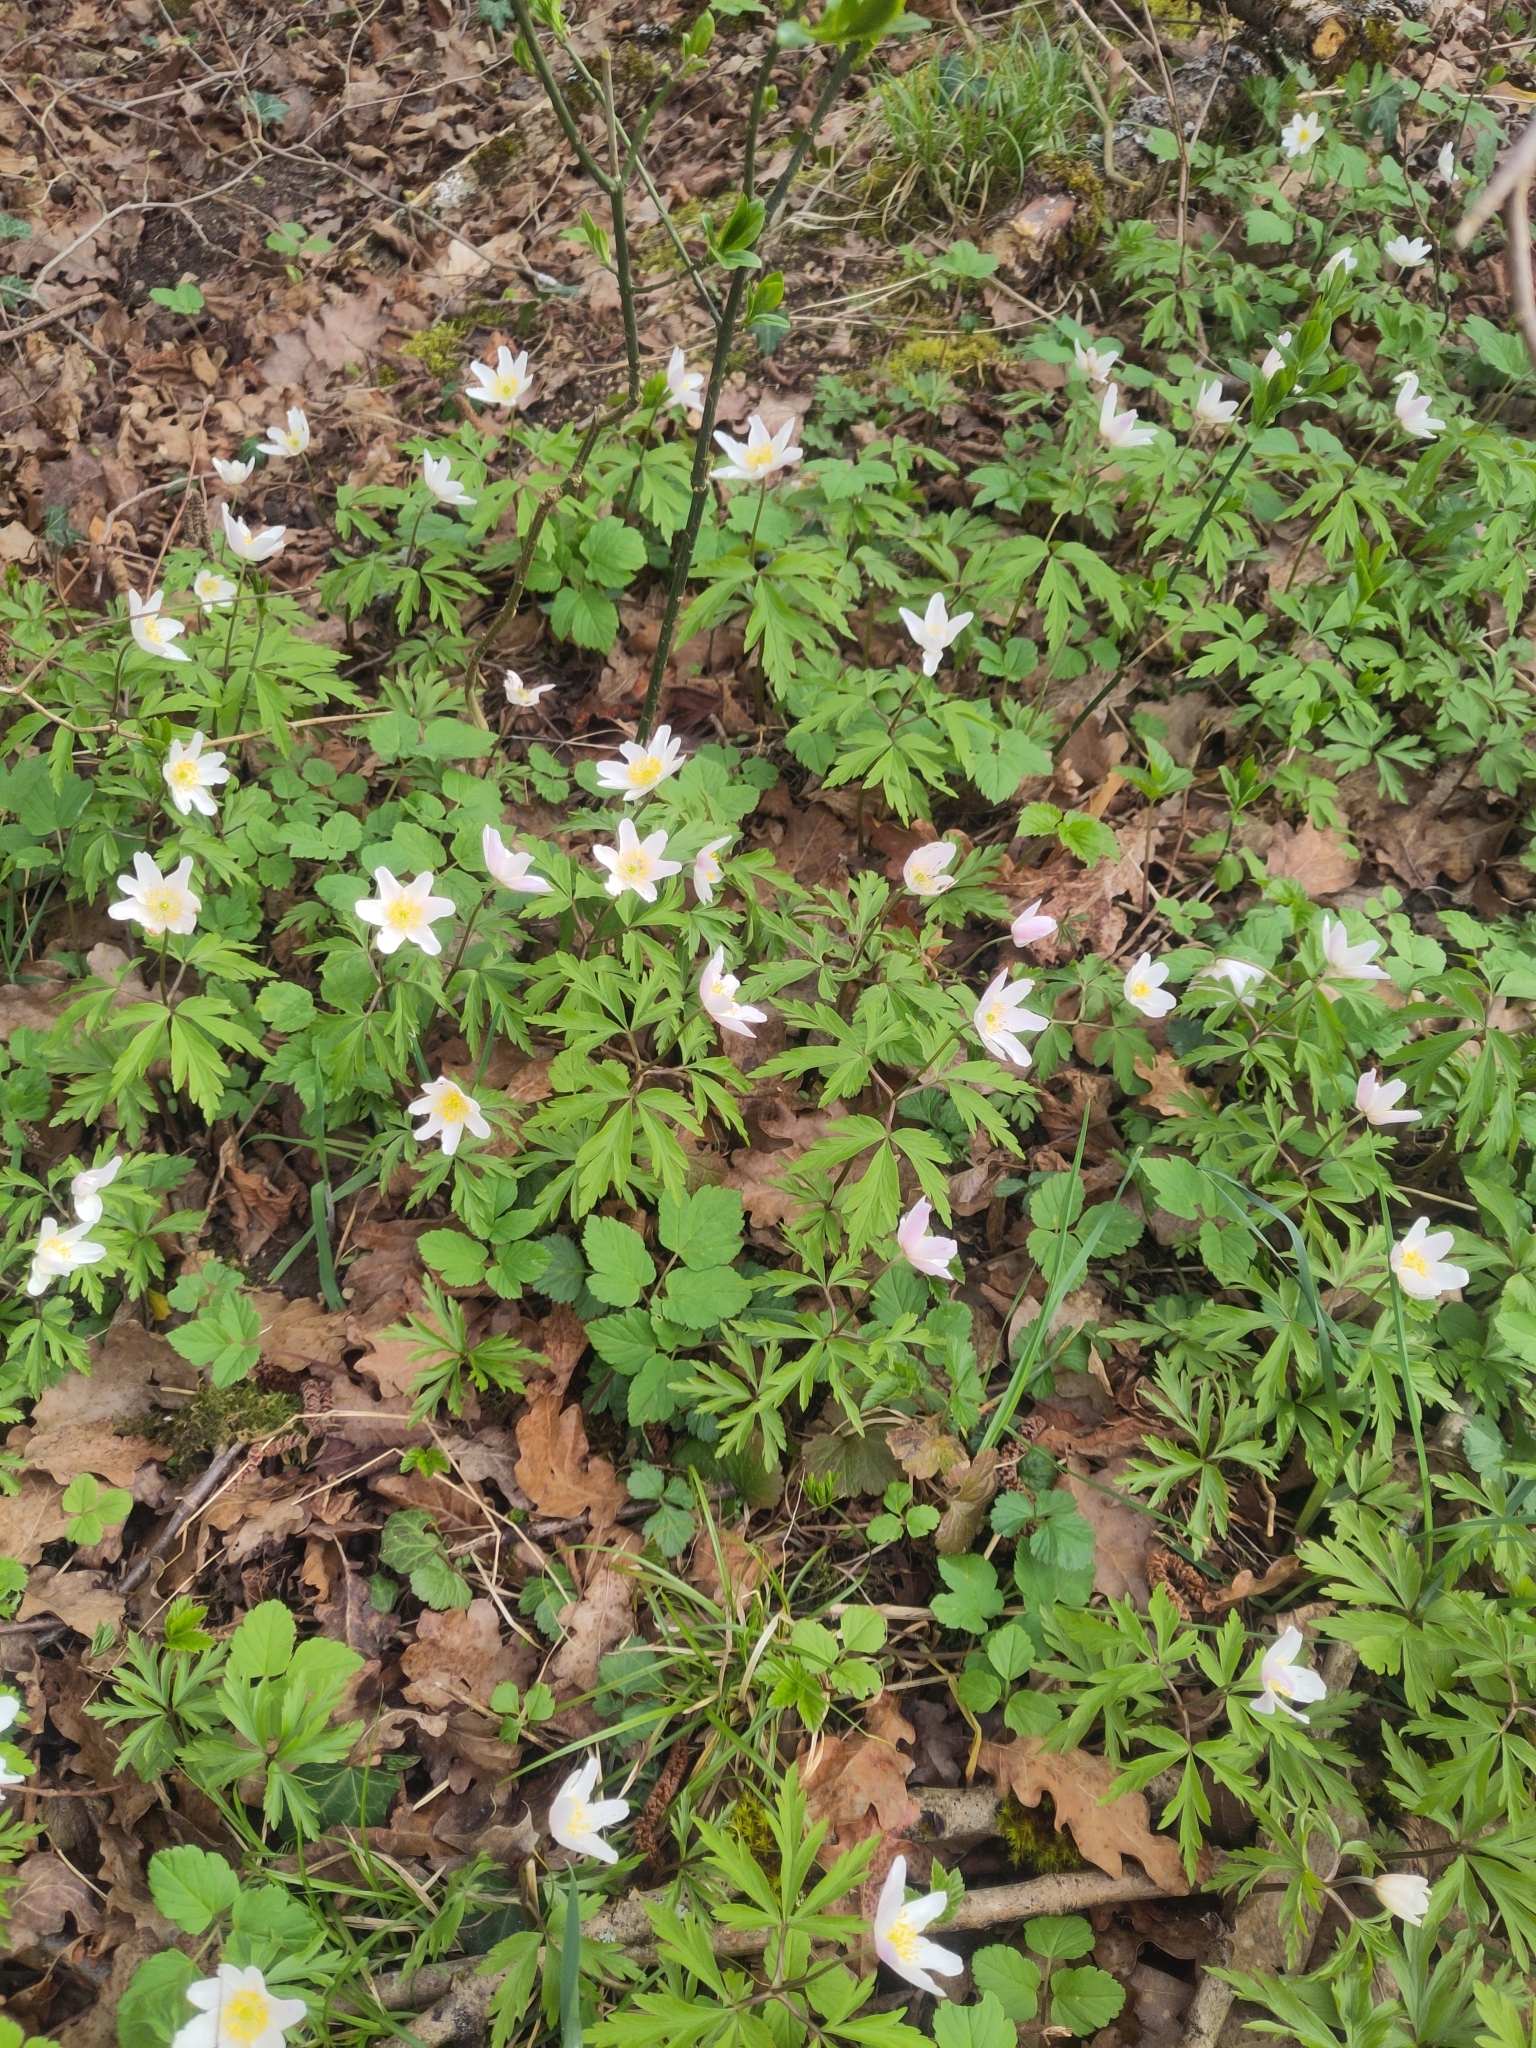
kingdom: Plantae
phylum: Tracheophyta
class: Magnoliopsida
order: Ranunculales
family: Ranunculaceae
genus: Anemone
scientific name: Anemone nemorosa
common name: Wood anemone
